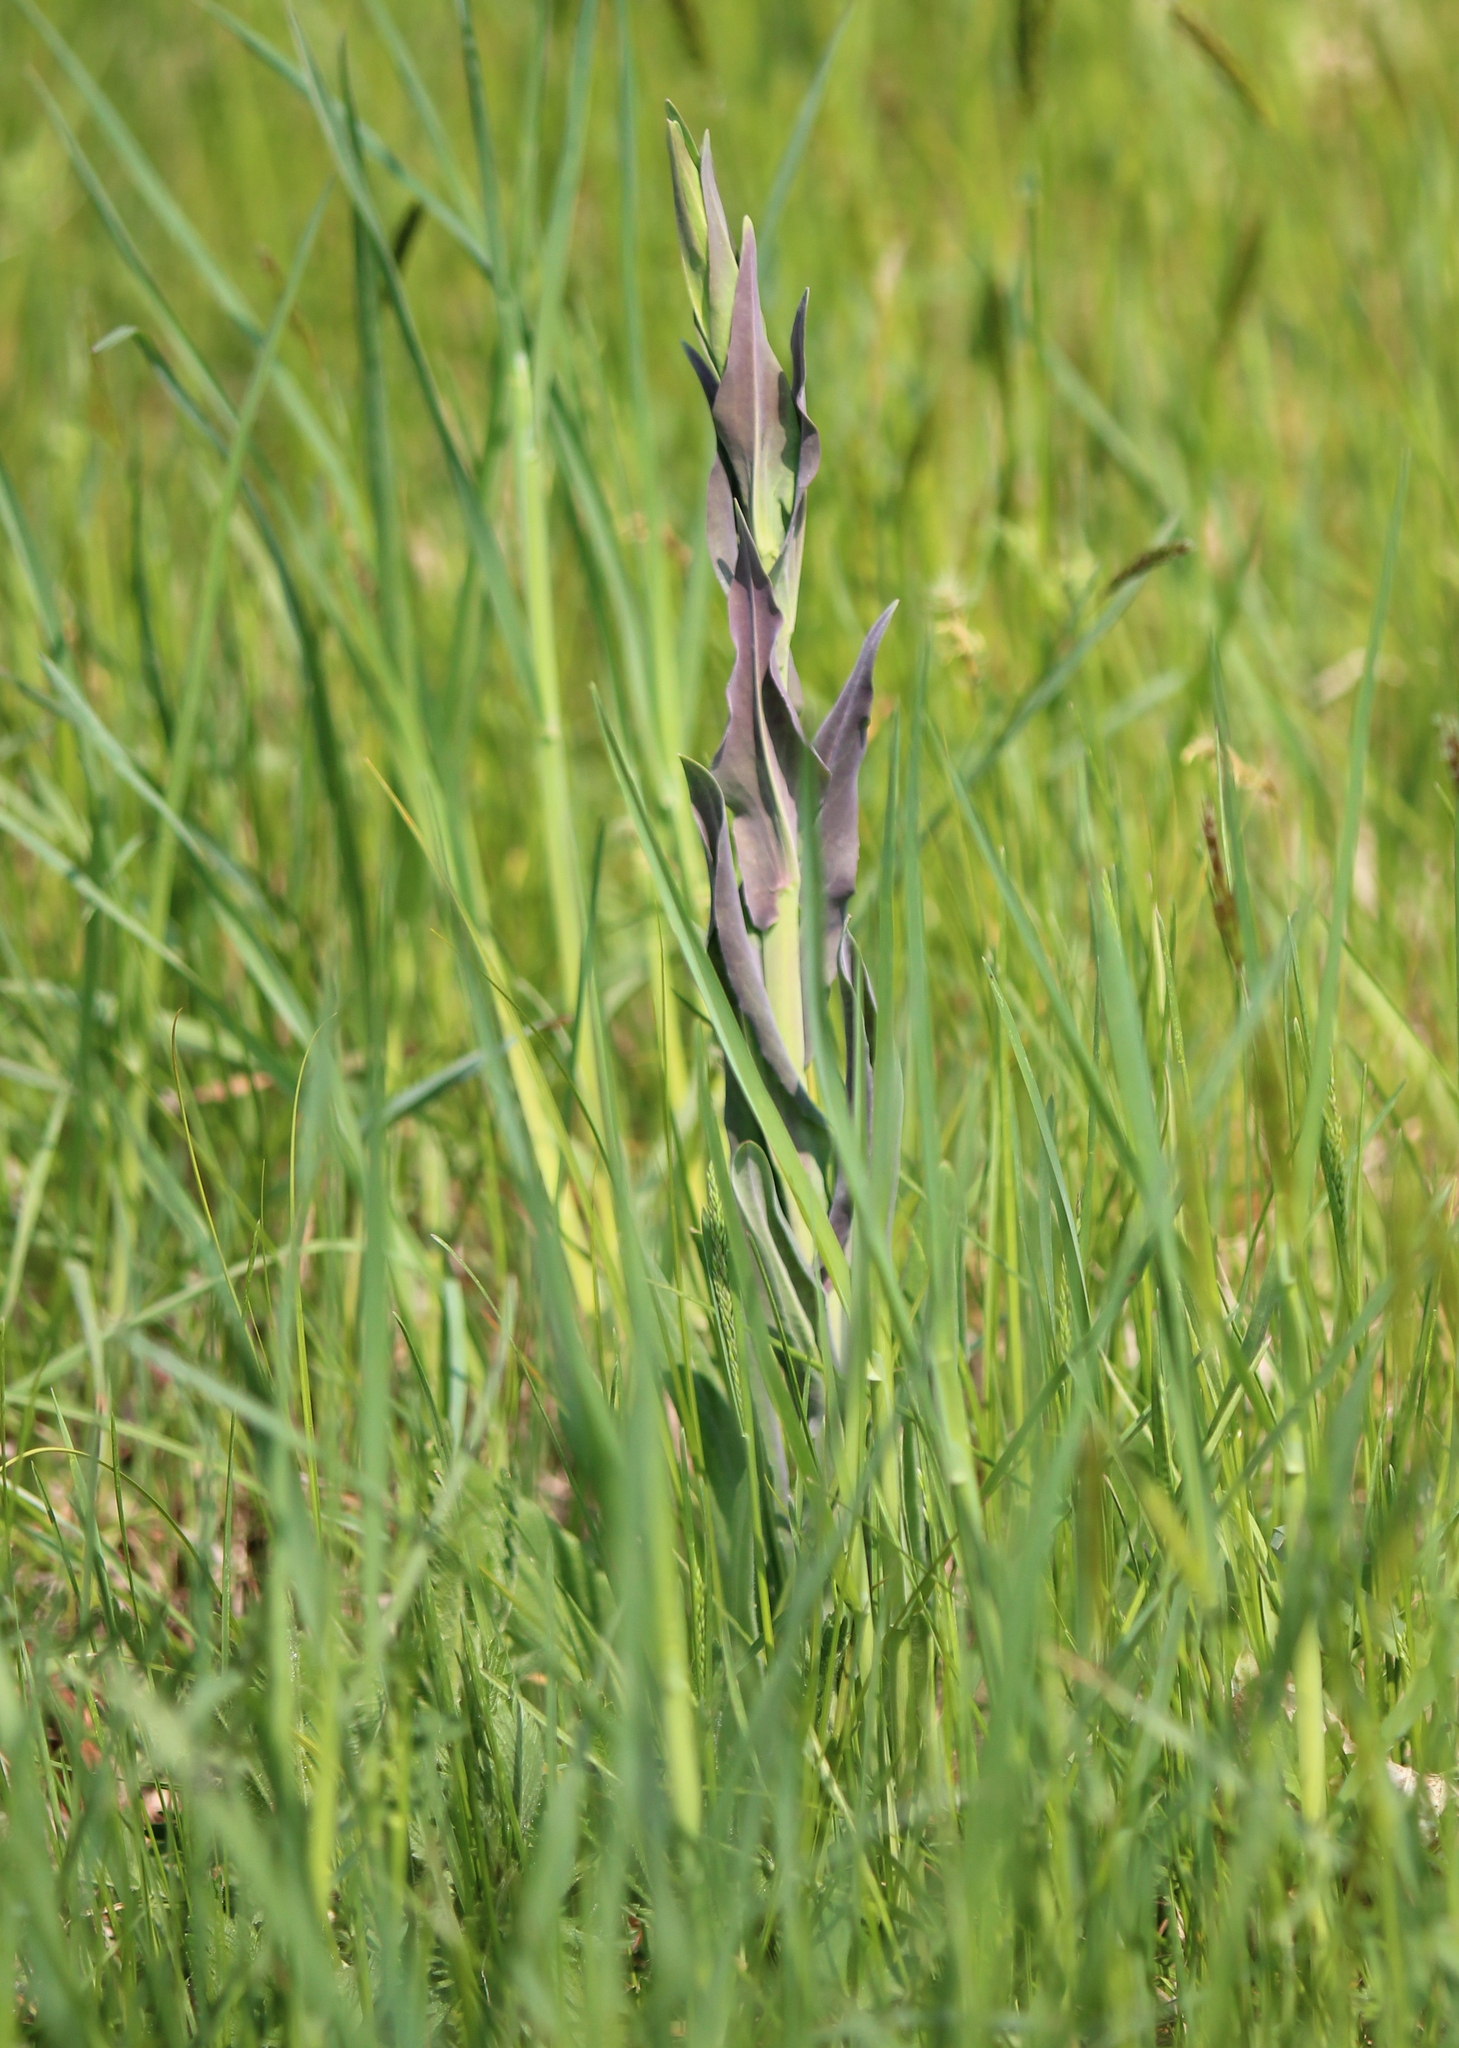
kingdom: Plantae
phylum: Tracheophyta
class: Magnoliopsida
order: Brassicales
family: Brassicaceae
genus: Turritis
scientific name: Turritis glabra
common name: Tower rockcress
